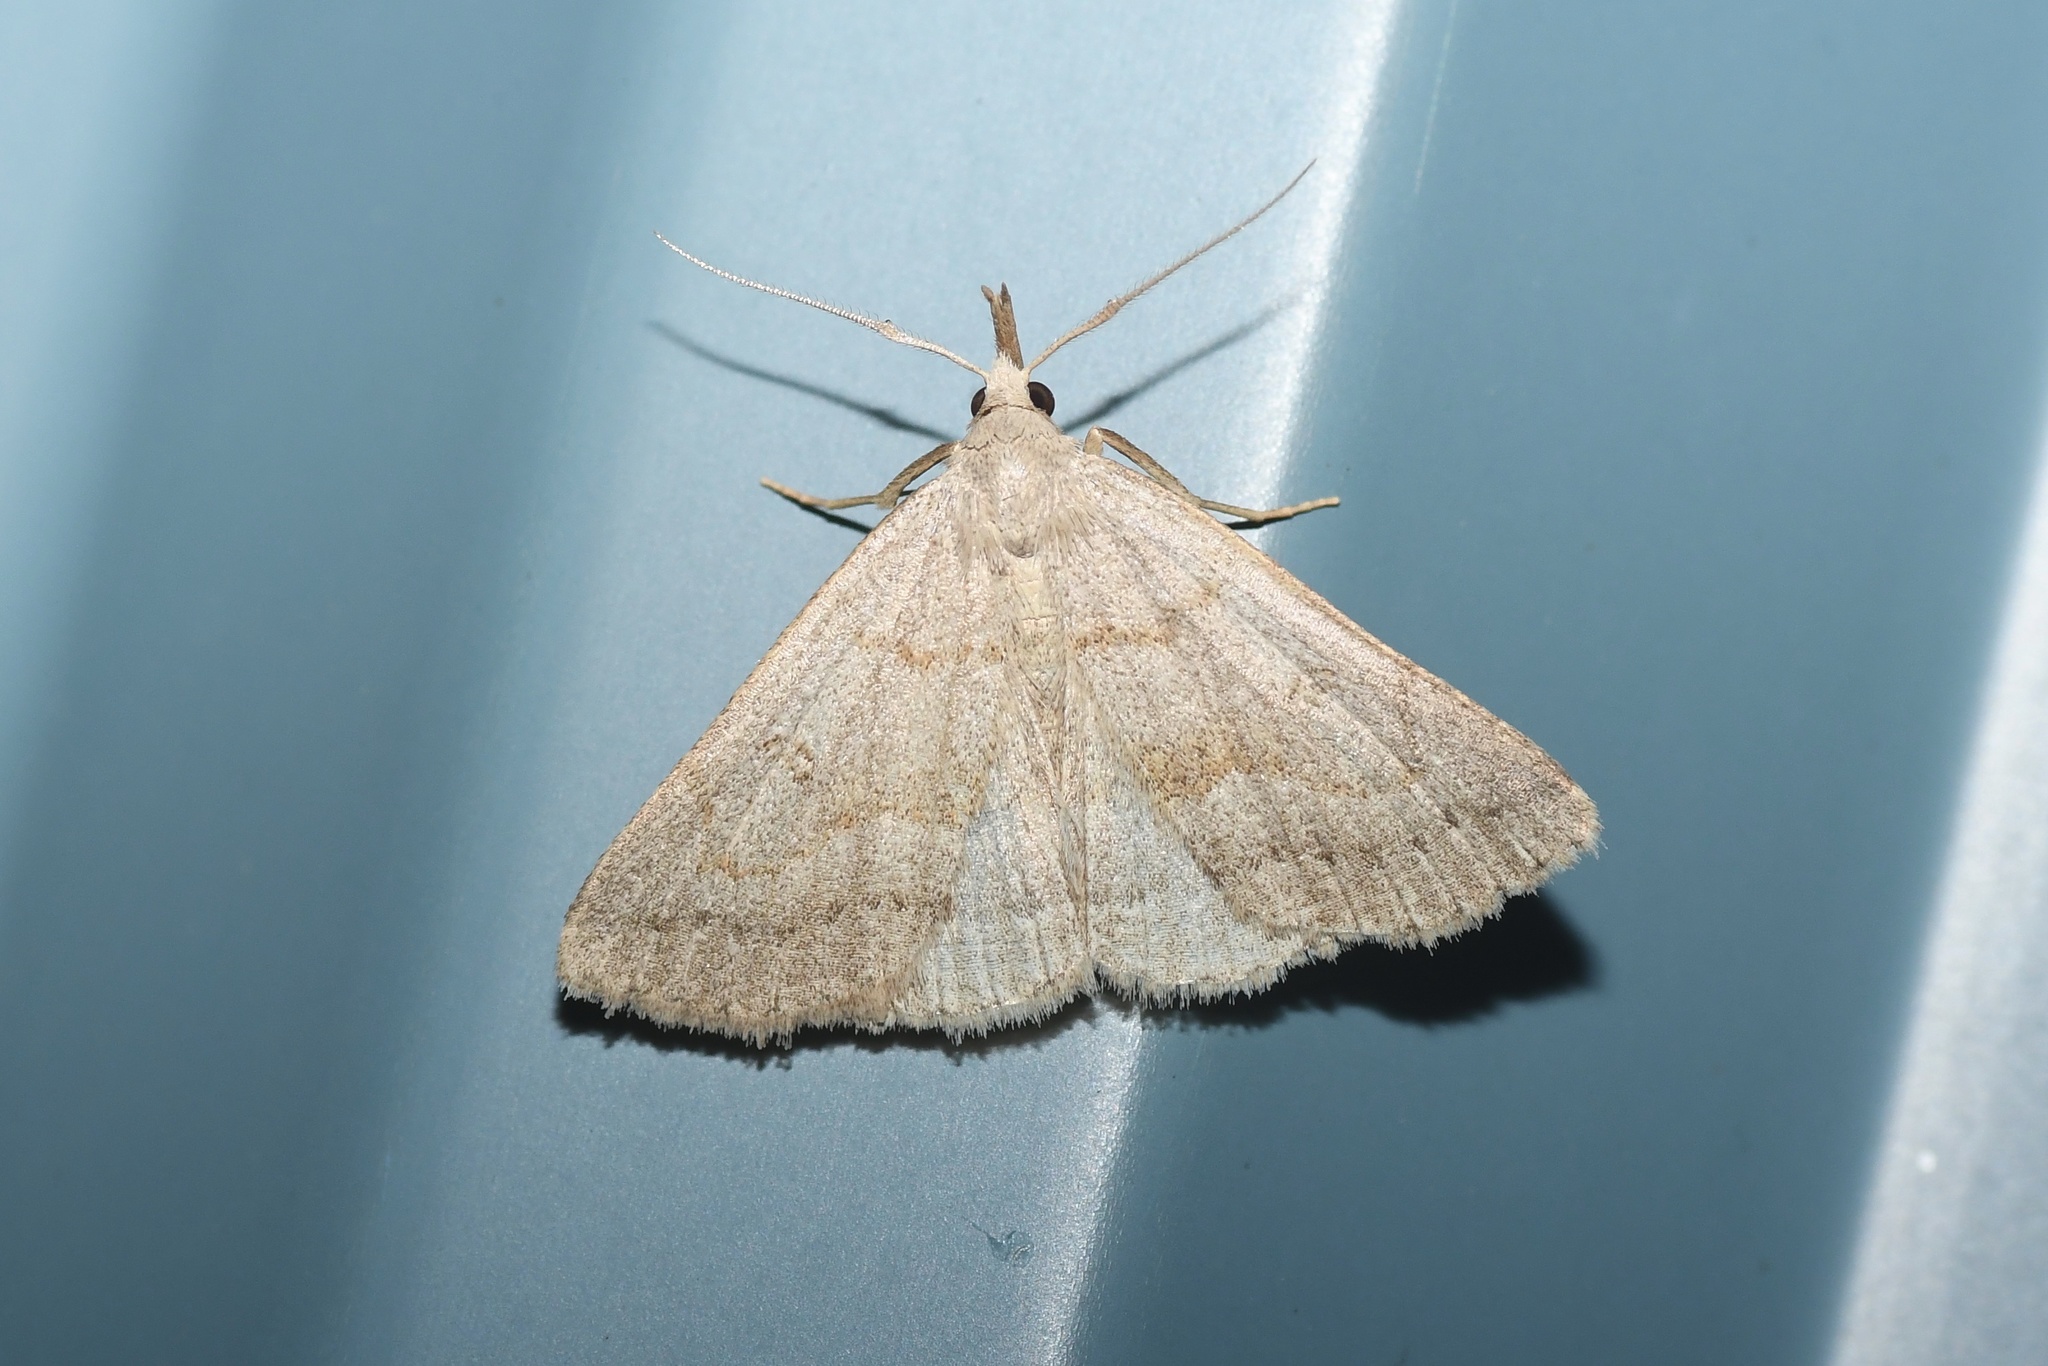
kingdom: Animalia
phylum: Arthropoda
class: Insecta
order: Lepidoptera
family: Erebidae
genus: Macrochilo
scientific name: Macrochilo morbidalis
